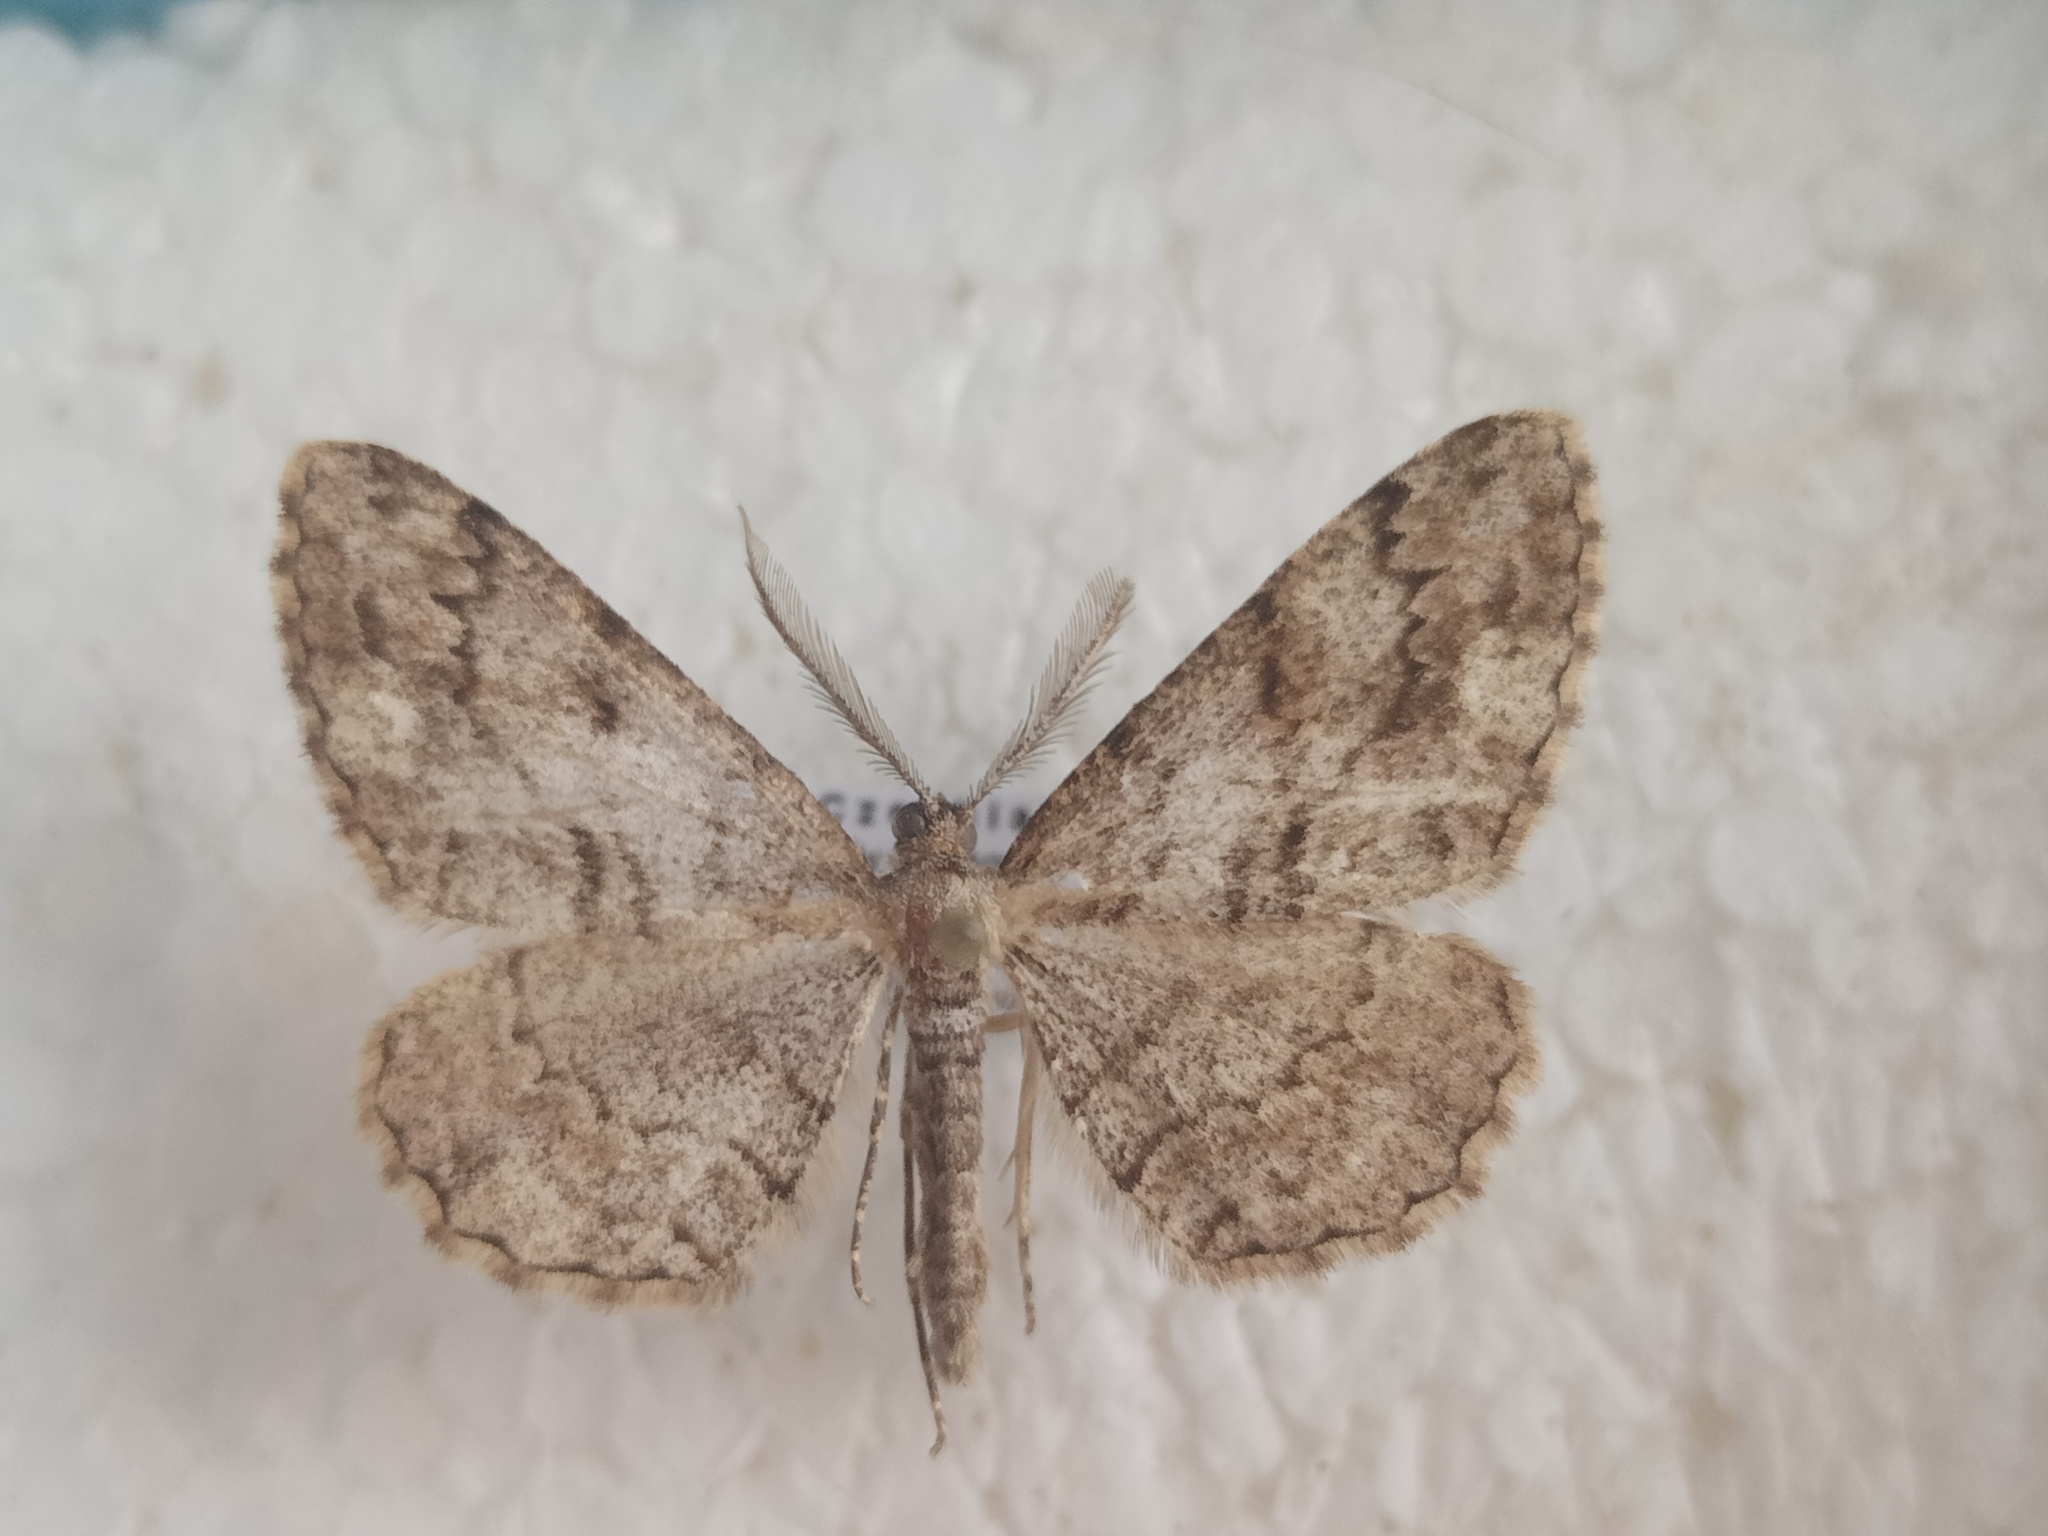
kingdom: Animalia
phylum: Arthropoda
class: Insecta
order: Lepidoptera
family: Geometridae
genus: Peribatodes
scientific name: Peribatodes secundaria
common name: Feathered beauty
